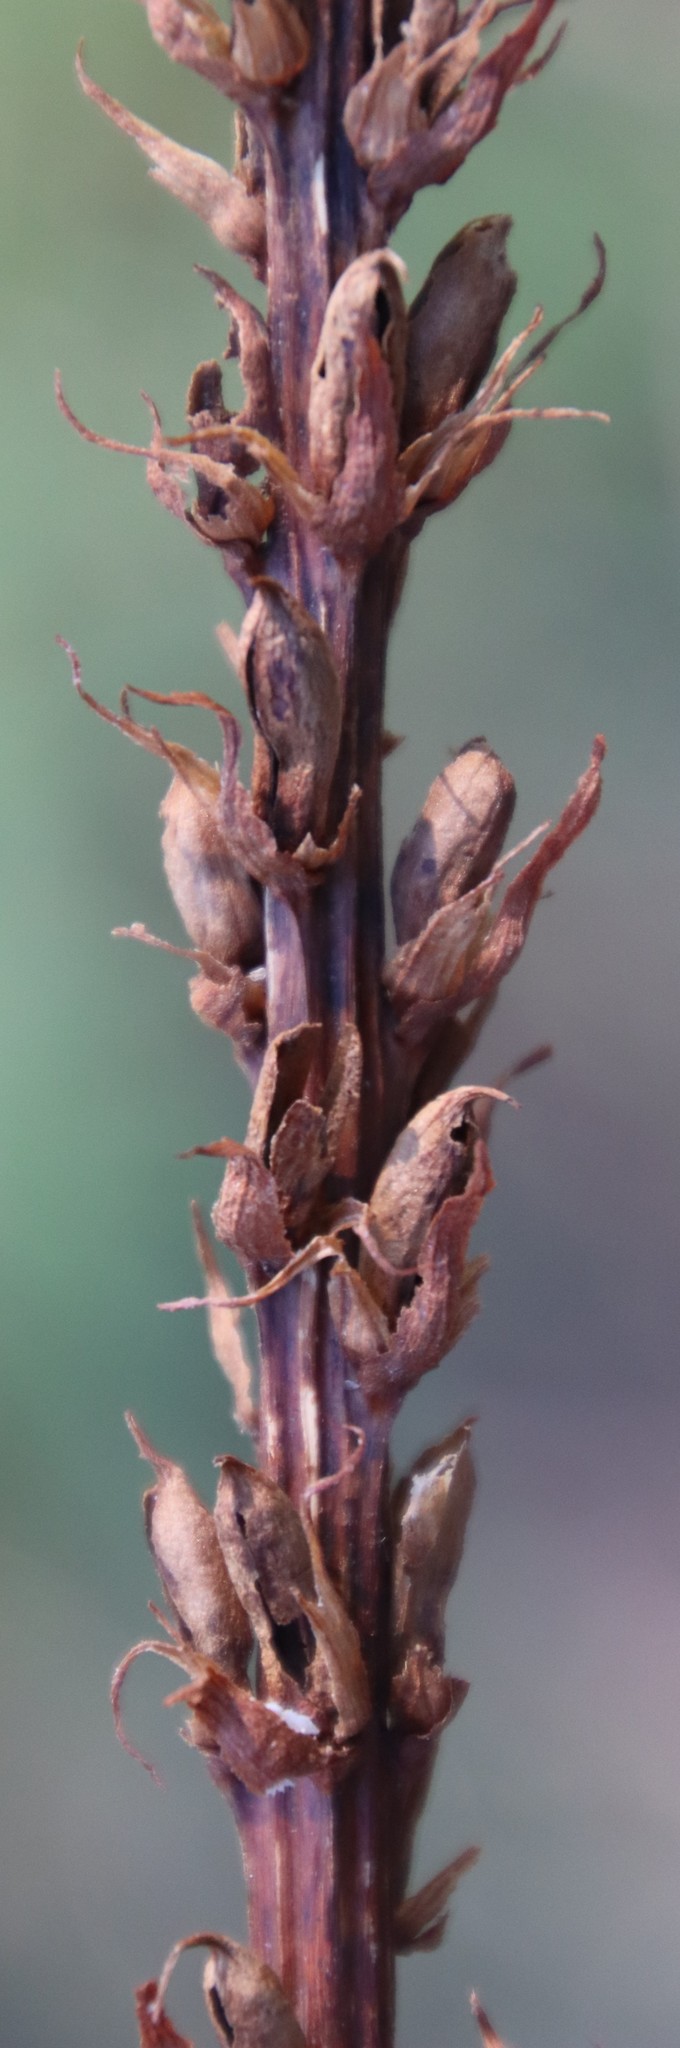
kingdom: Plantae
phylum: Tracheophyta
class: Magnoliopsida
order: Lamiales
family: Orobanchaceae
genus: Orobanche
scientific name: Orobanche minor
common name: Common broomrape
